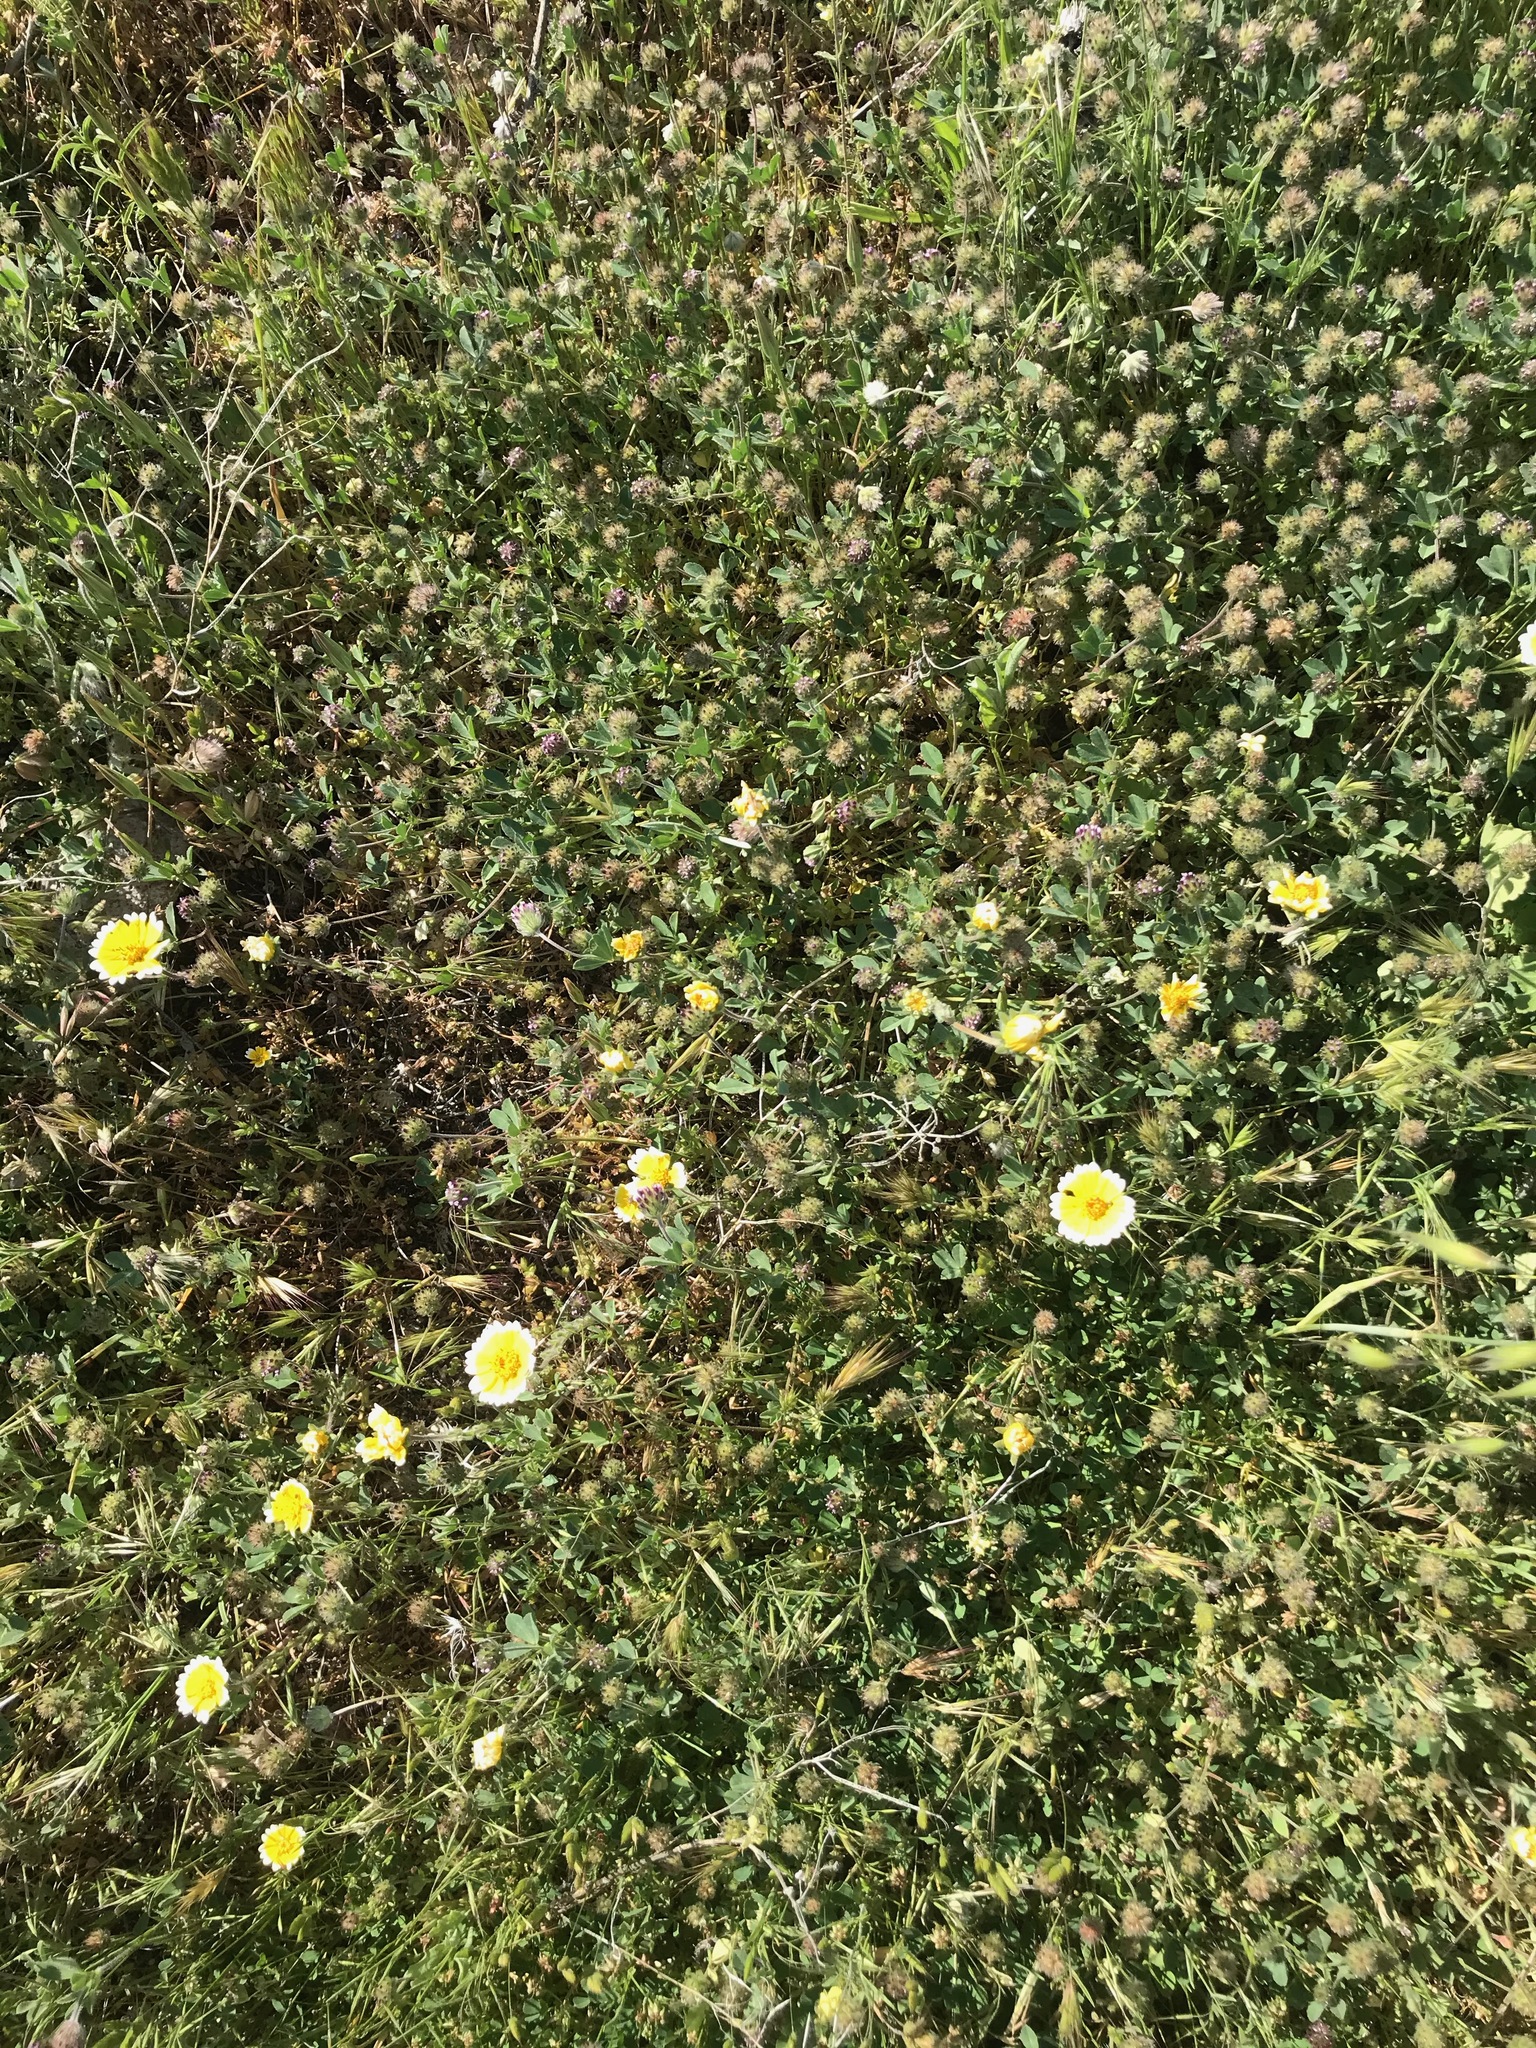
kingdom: Plantae
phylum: Tracheophyta
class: Magnoliopsida
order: Asterales
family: Asteraceae
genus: Layia
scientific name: Layia platyglossa
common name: Tidy-tips
